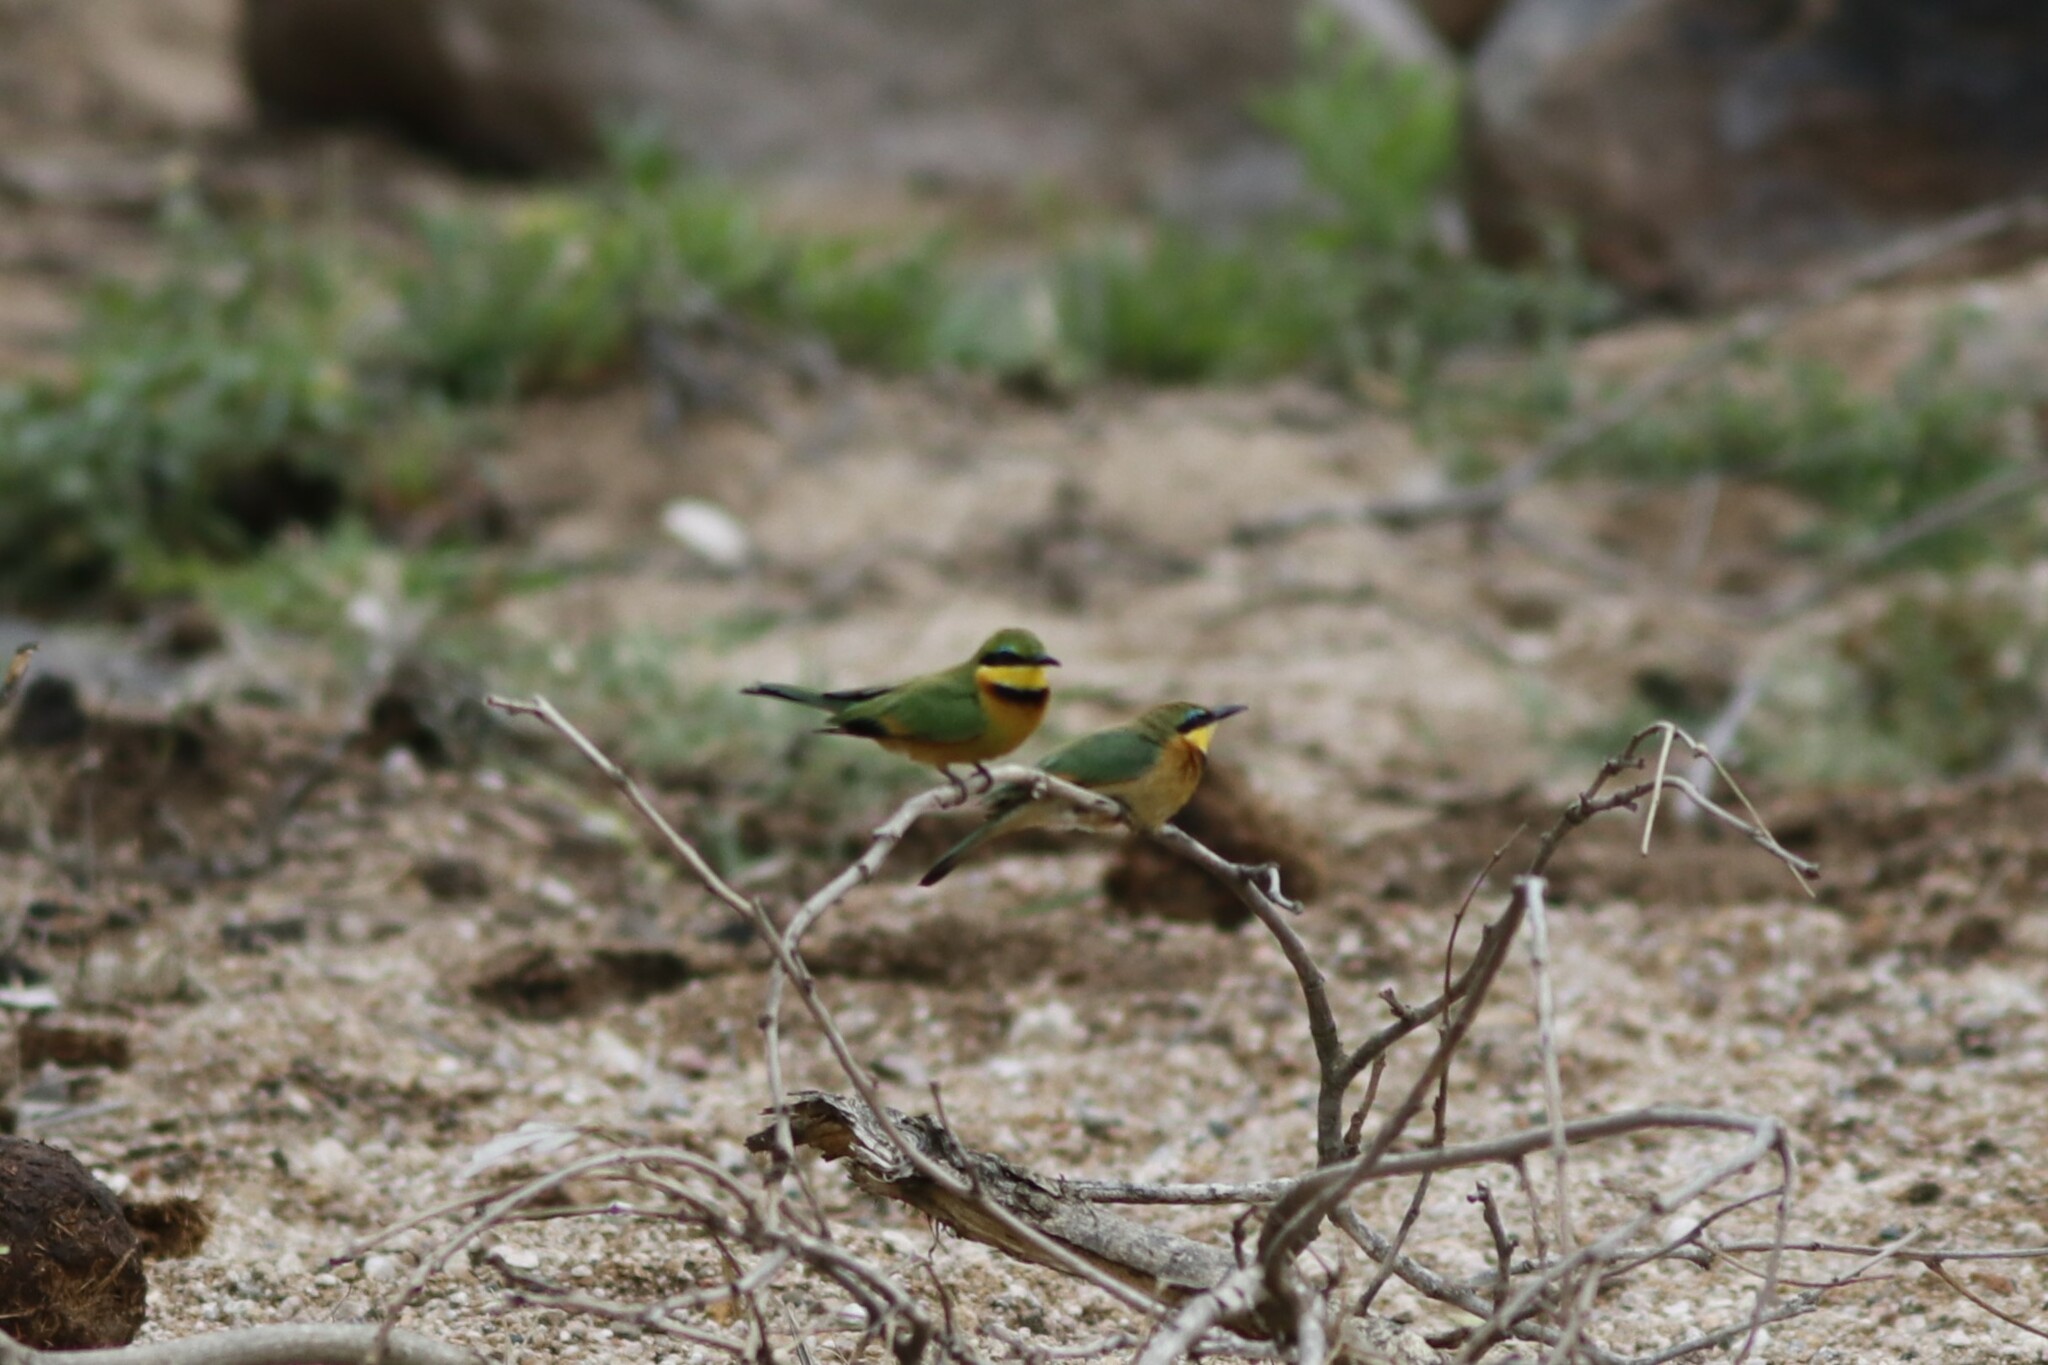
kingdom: Animalia
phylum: Chordata
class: Aves
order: Coraciiformes
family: Meropidae
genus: Merops
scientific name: Merops pusillus
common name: Little bee-eater
